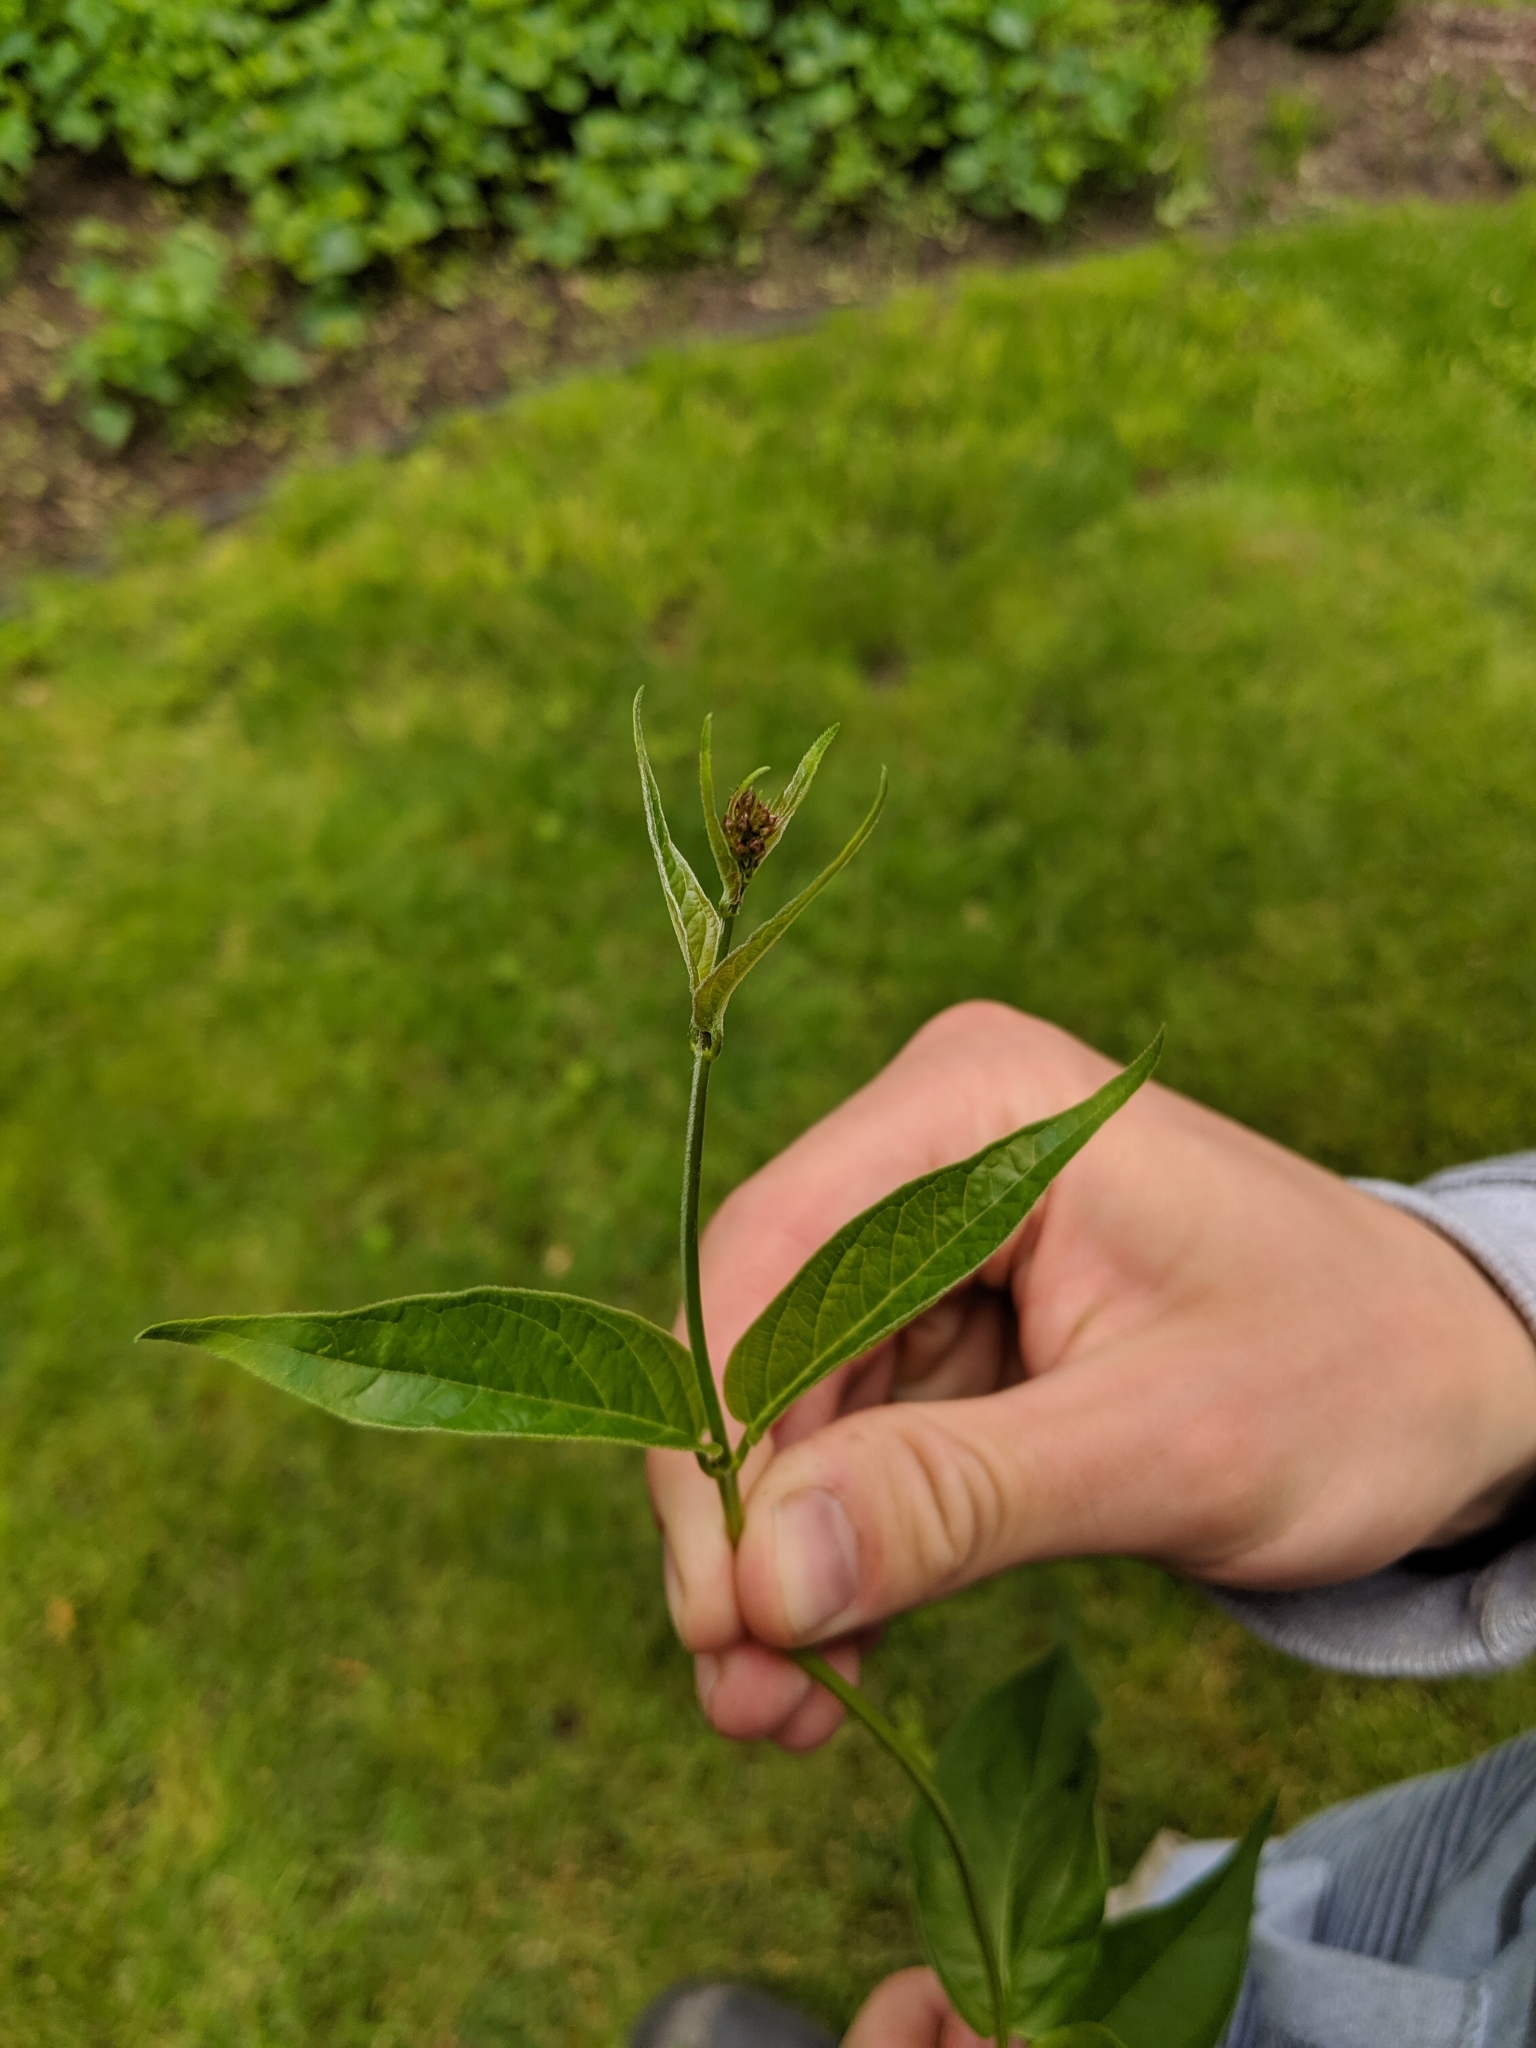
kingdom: Plantae
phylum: Tracheophyta
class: Magnoliopsida
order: Gentianales
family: Apocynaceae
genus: Vincetoxicum
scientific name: Vincetoxicum rossicum
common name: Dog-strangling vine
